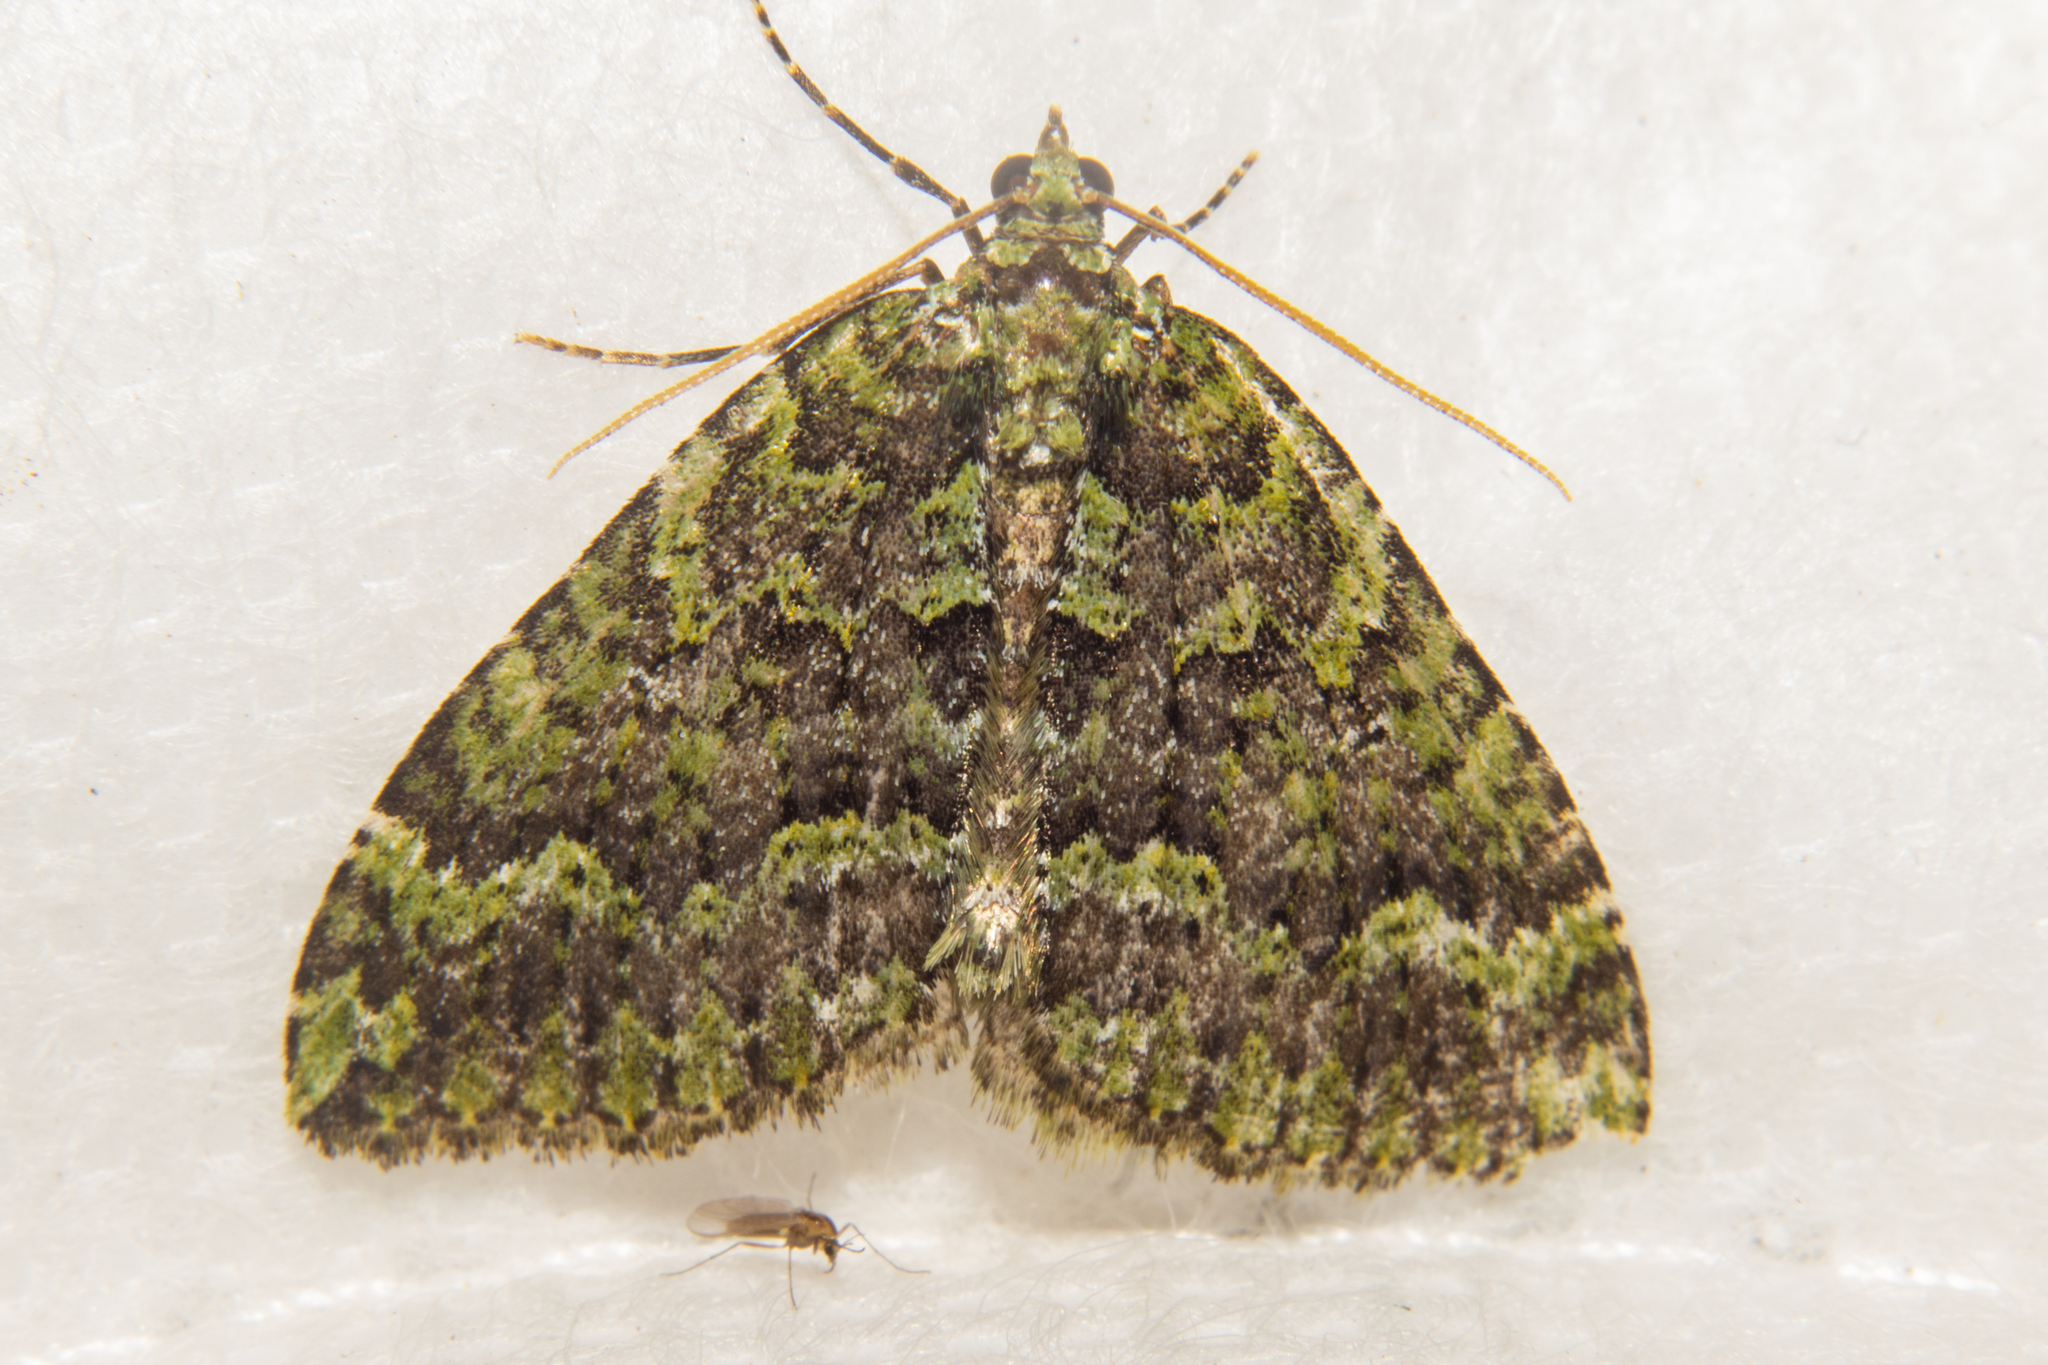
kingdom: Animalia
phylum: Arthropoda
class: Insecta
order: Lepidoptera
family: Geometridae
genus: Austrocidaria
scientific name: Austrocidaria callichlora
